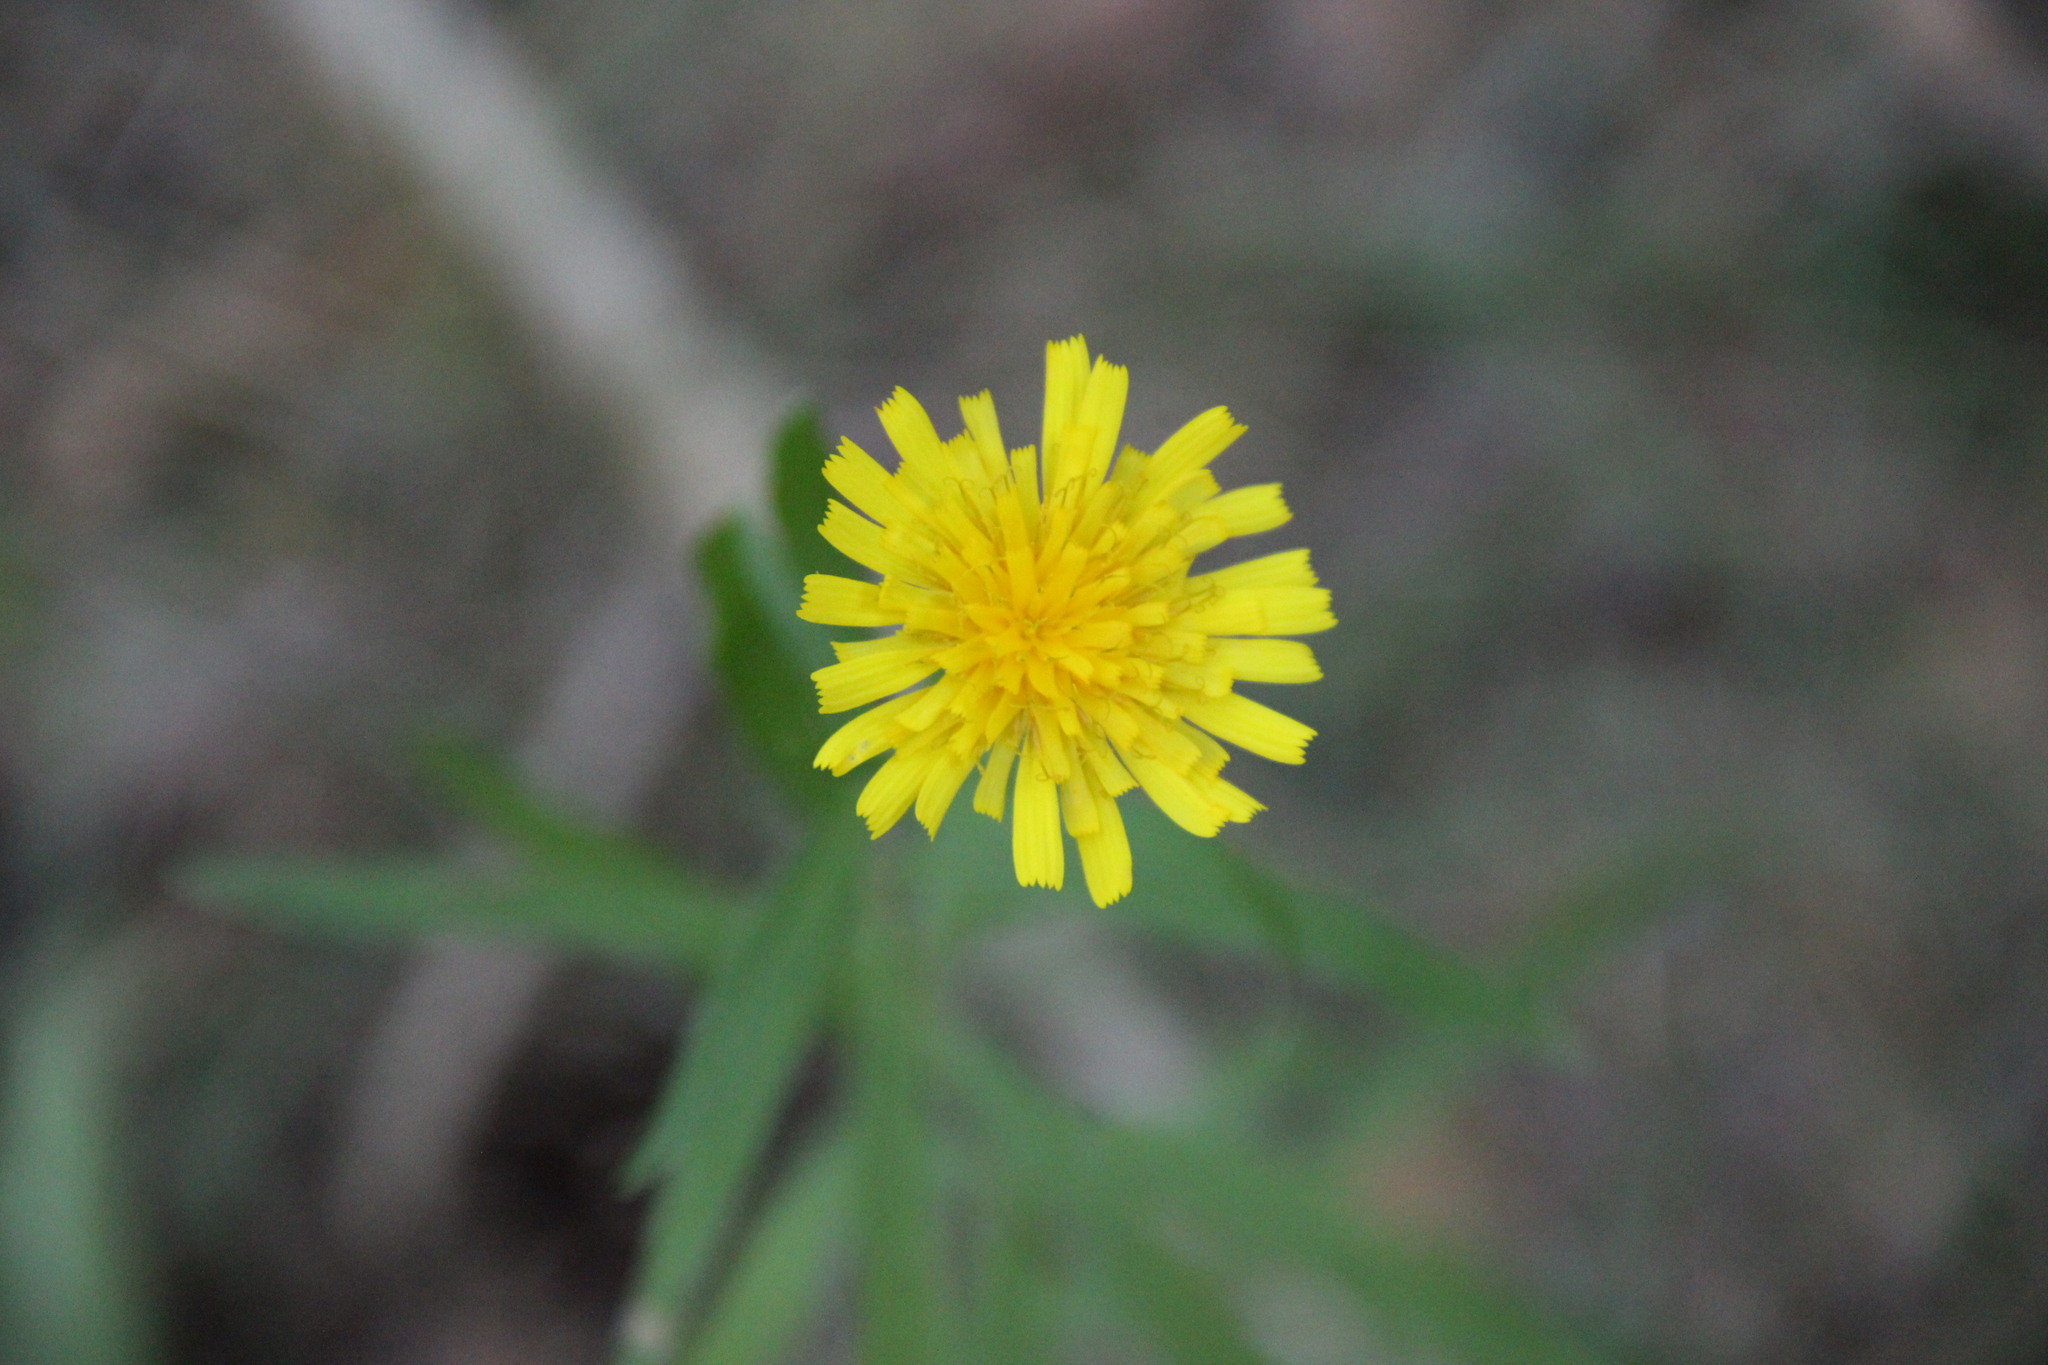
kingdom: Plantae
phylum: Tracheophyta
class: Magnoliopsida
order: Asterales
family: Asteraceae
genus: Hieracium
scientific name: Hieracium umbellatum
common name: Northern hawkweed
